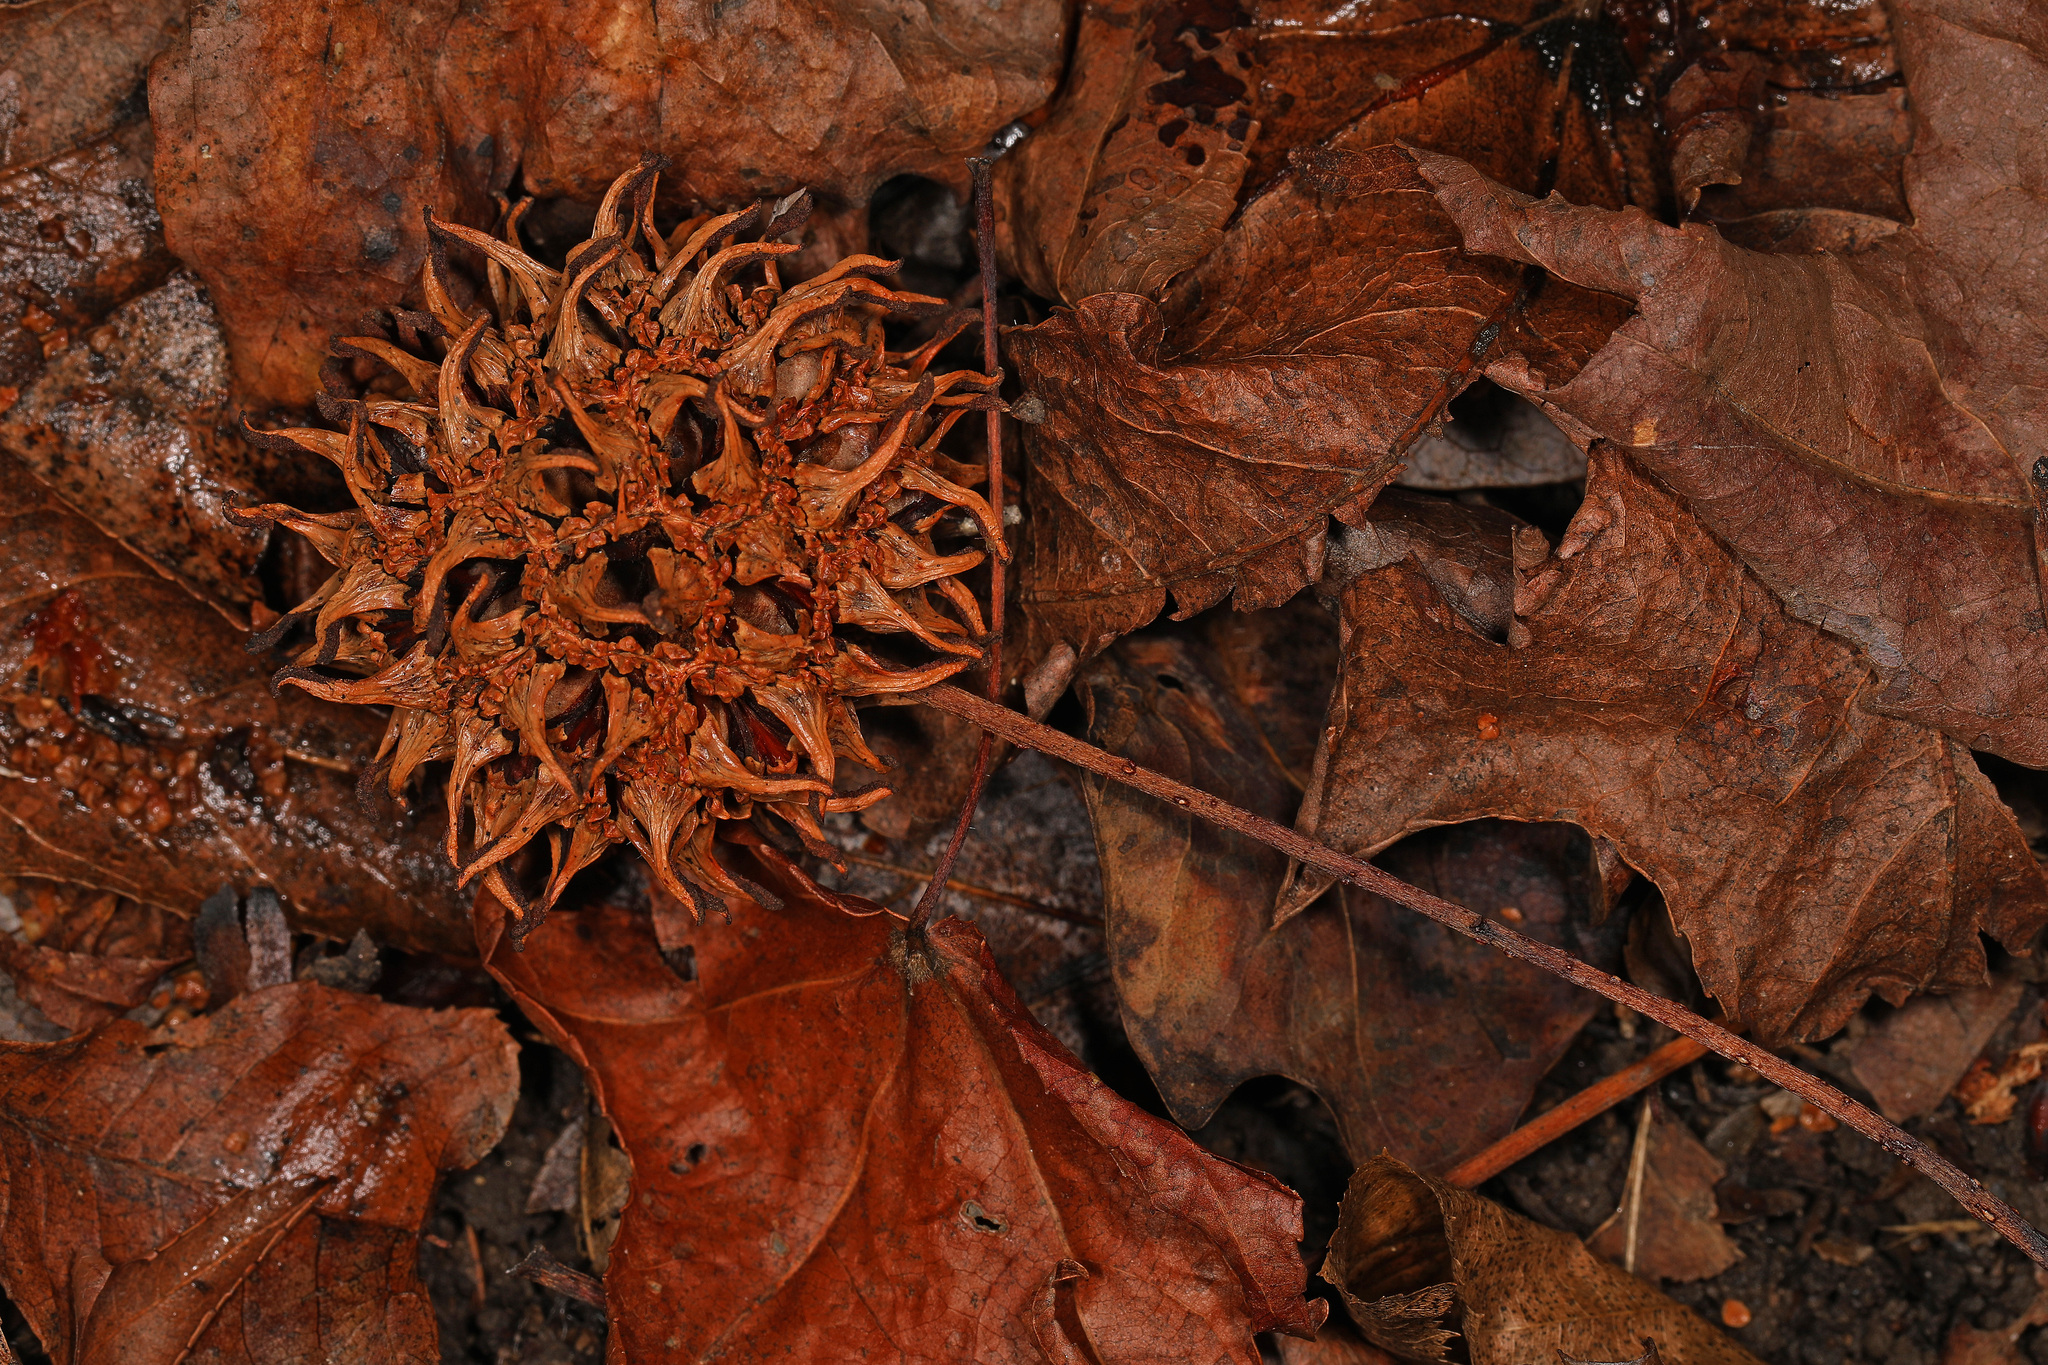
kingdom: Plantae
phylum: Tracheophyta
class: Magnoliopsida
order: Saxifragales
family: Altingiaceae
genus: Liquidambar
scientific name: Liquidambar styraciflua
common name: Sweet gum
